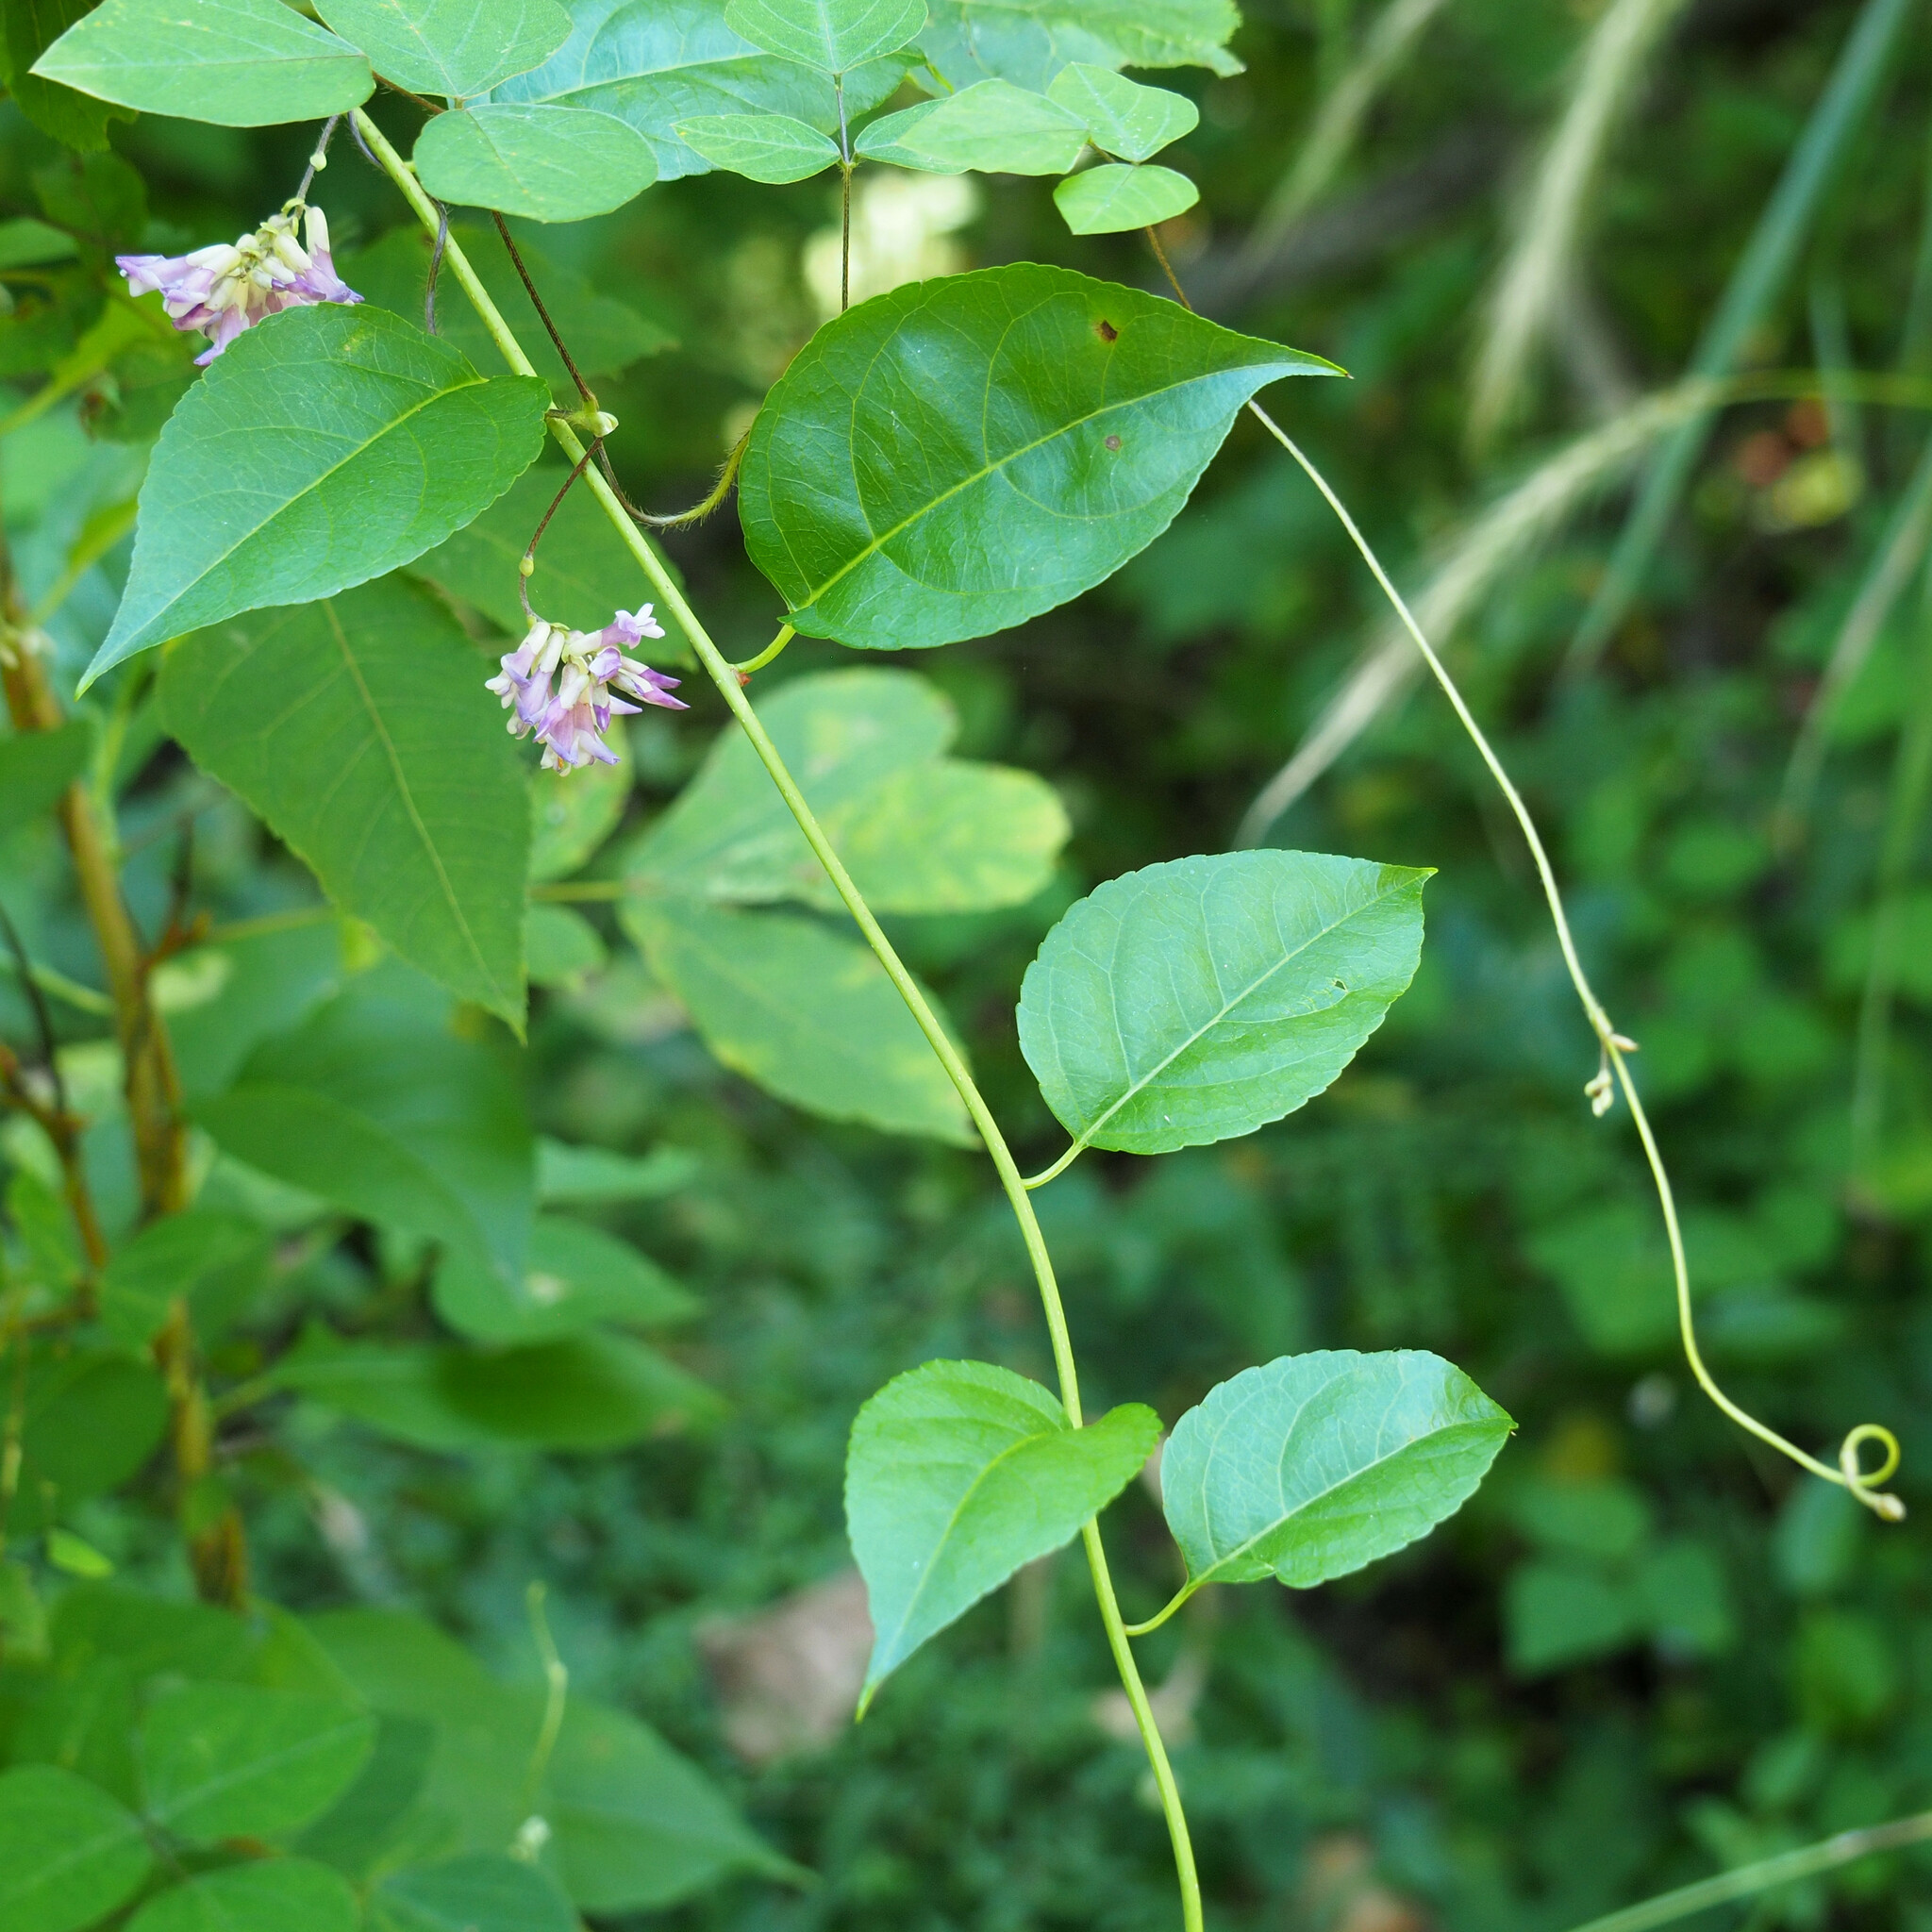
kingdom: Plantae
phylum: Tracheophyta
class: Magnoliopsida
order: Fabales
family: Fabaceae
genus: Amphicarpaea
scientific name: Amphicarpaea bracteata
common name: American hog peanut
